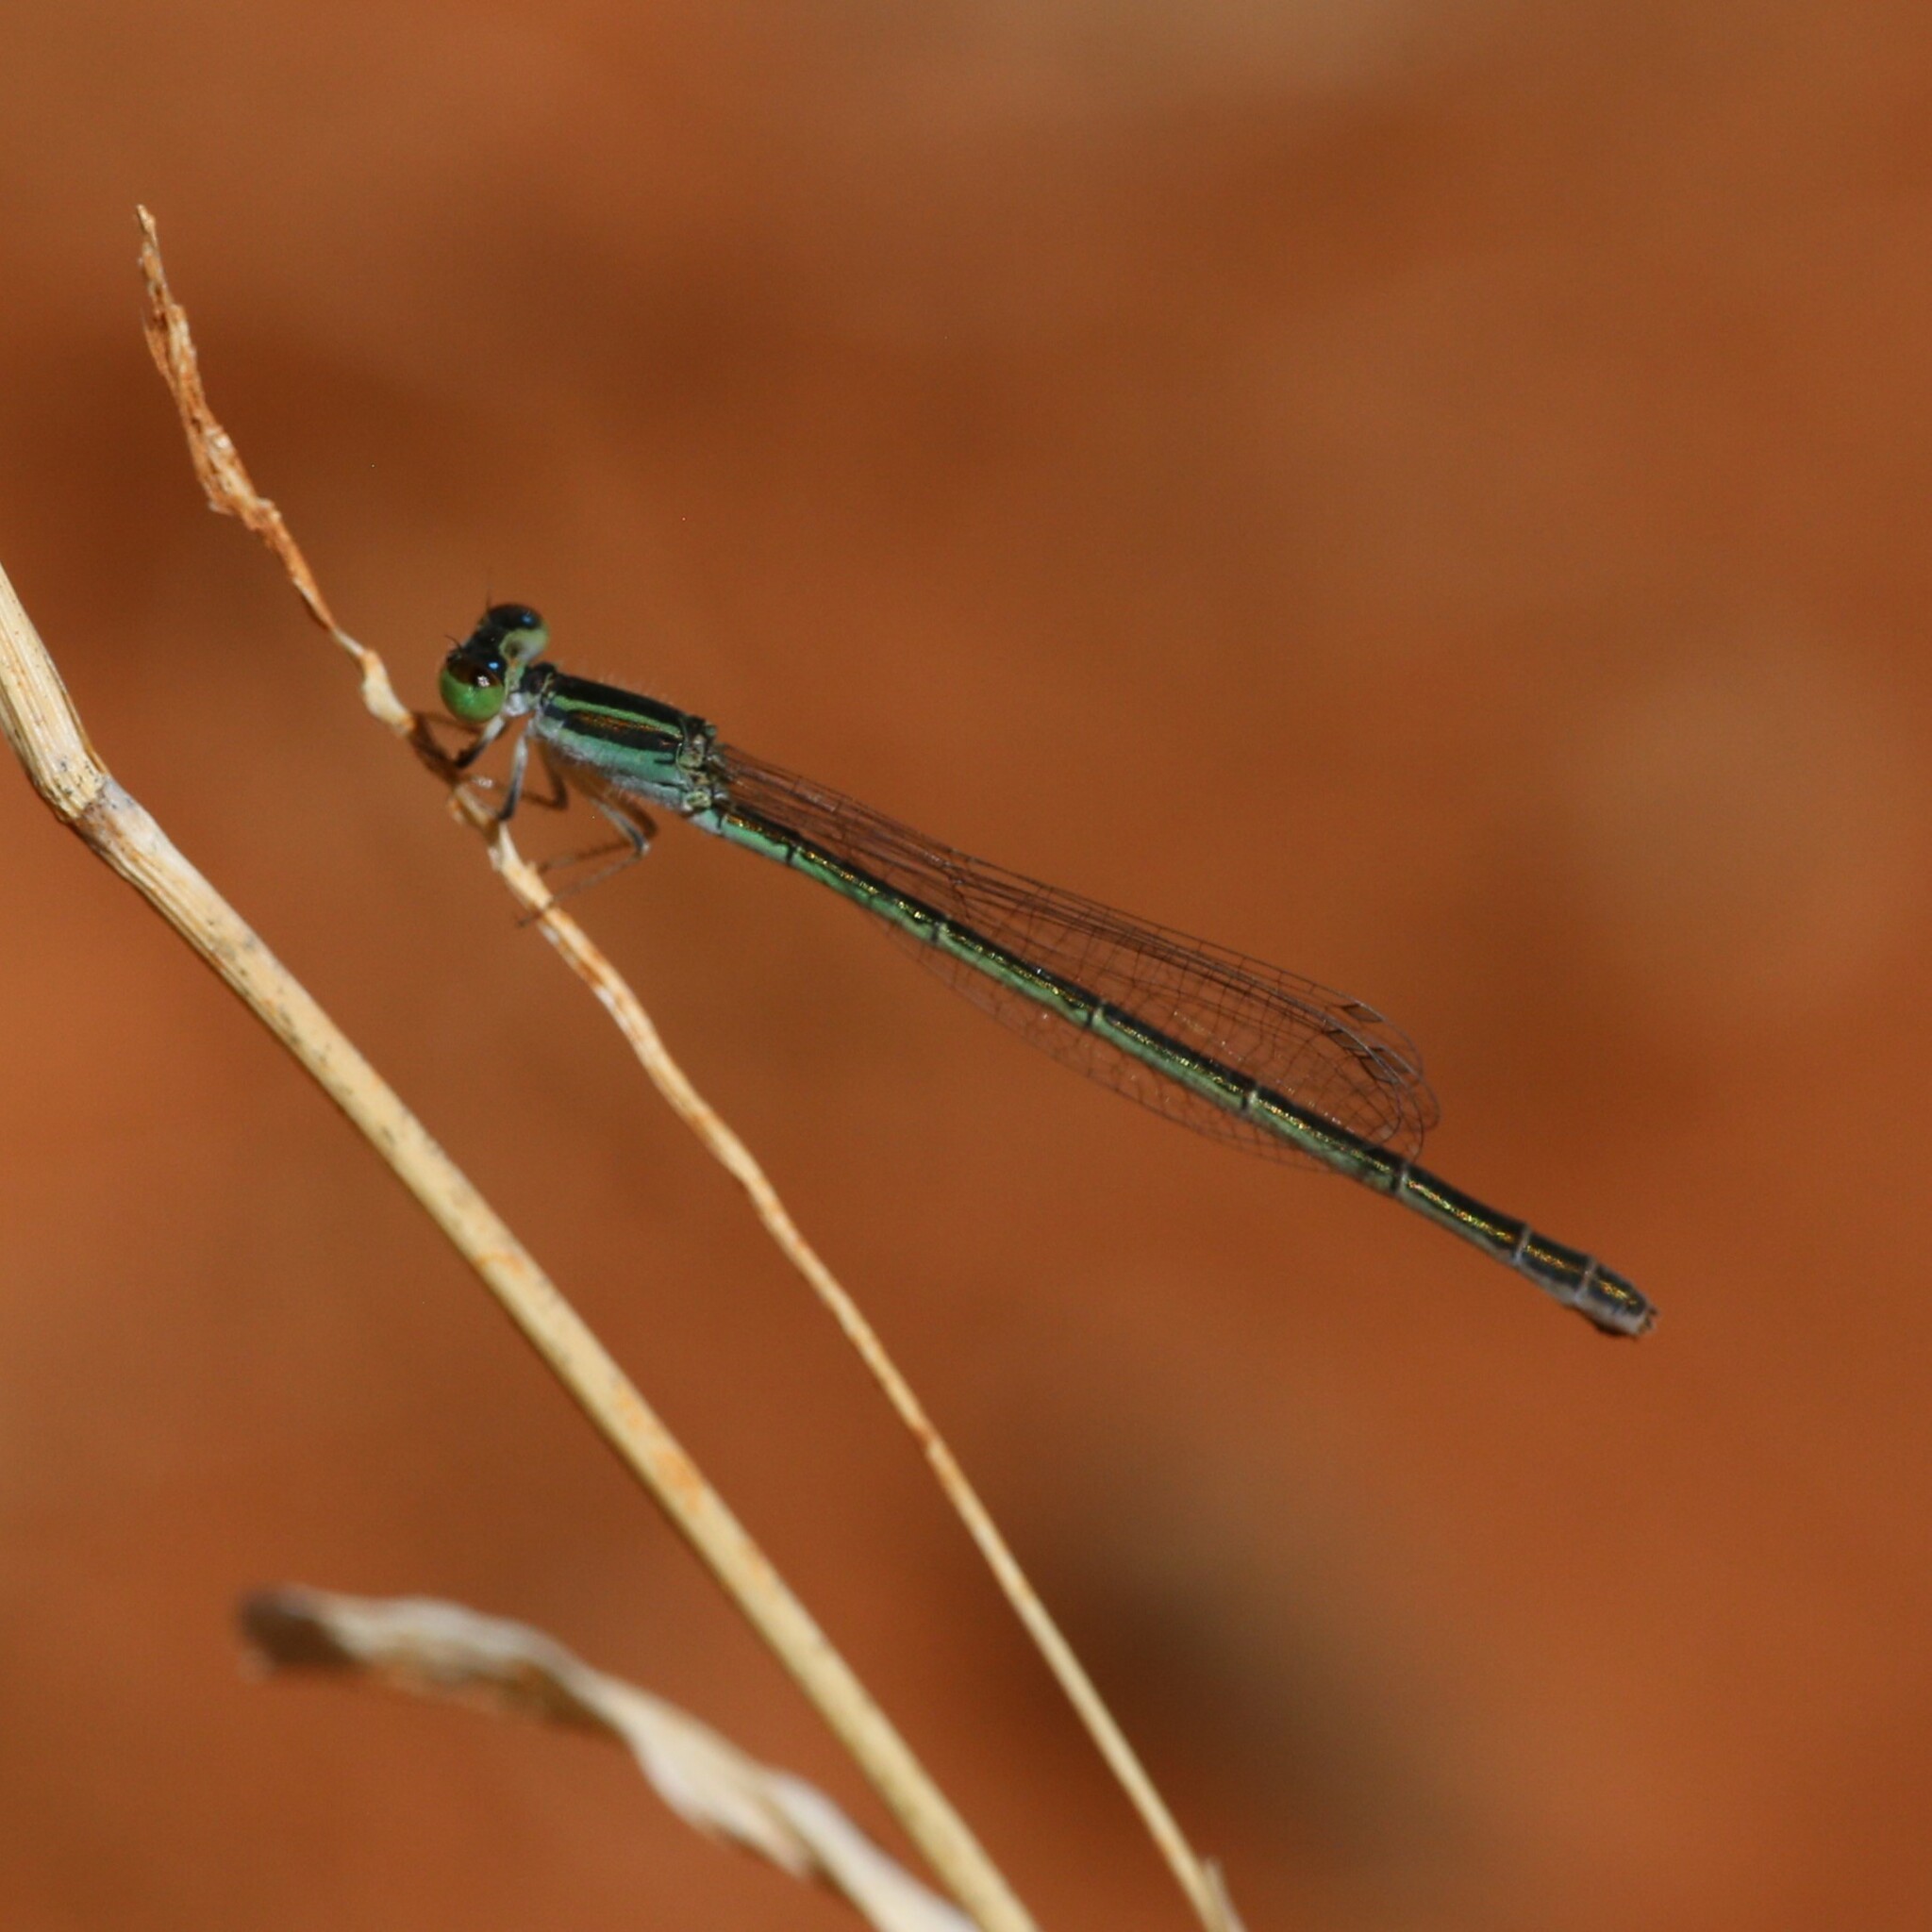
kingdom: Animalia
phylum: Arthropoda
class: Insecta
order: Odonata
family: Coenagrionidae
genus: Ischnura
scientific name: Ischnura aurora
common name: Gossamer damselfly
